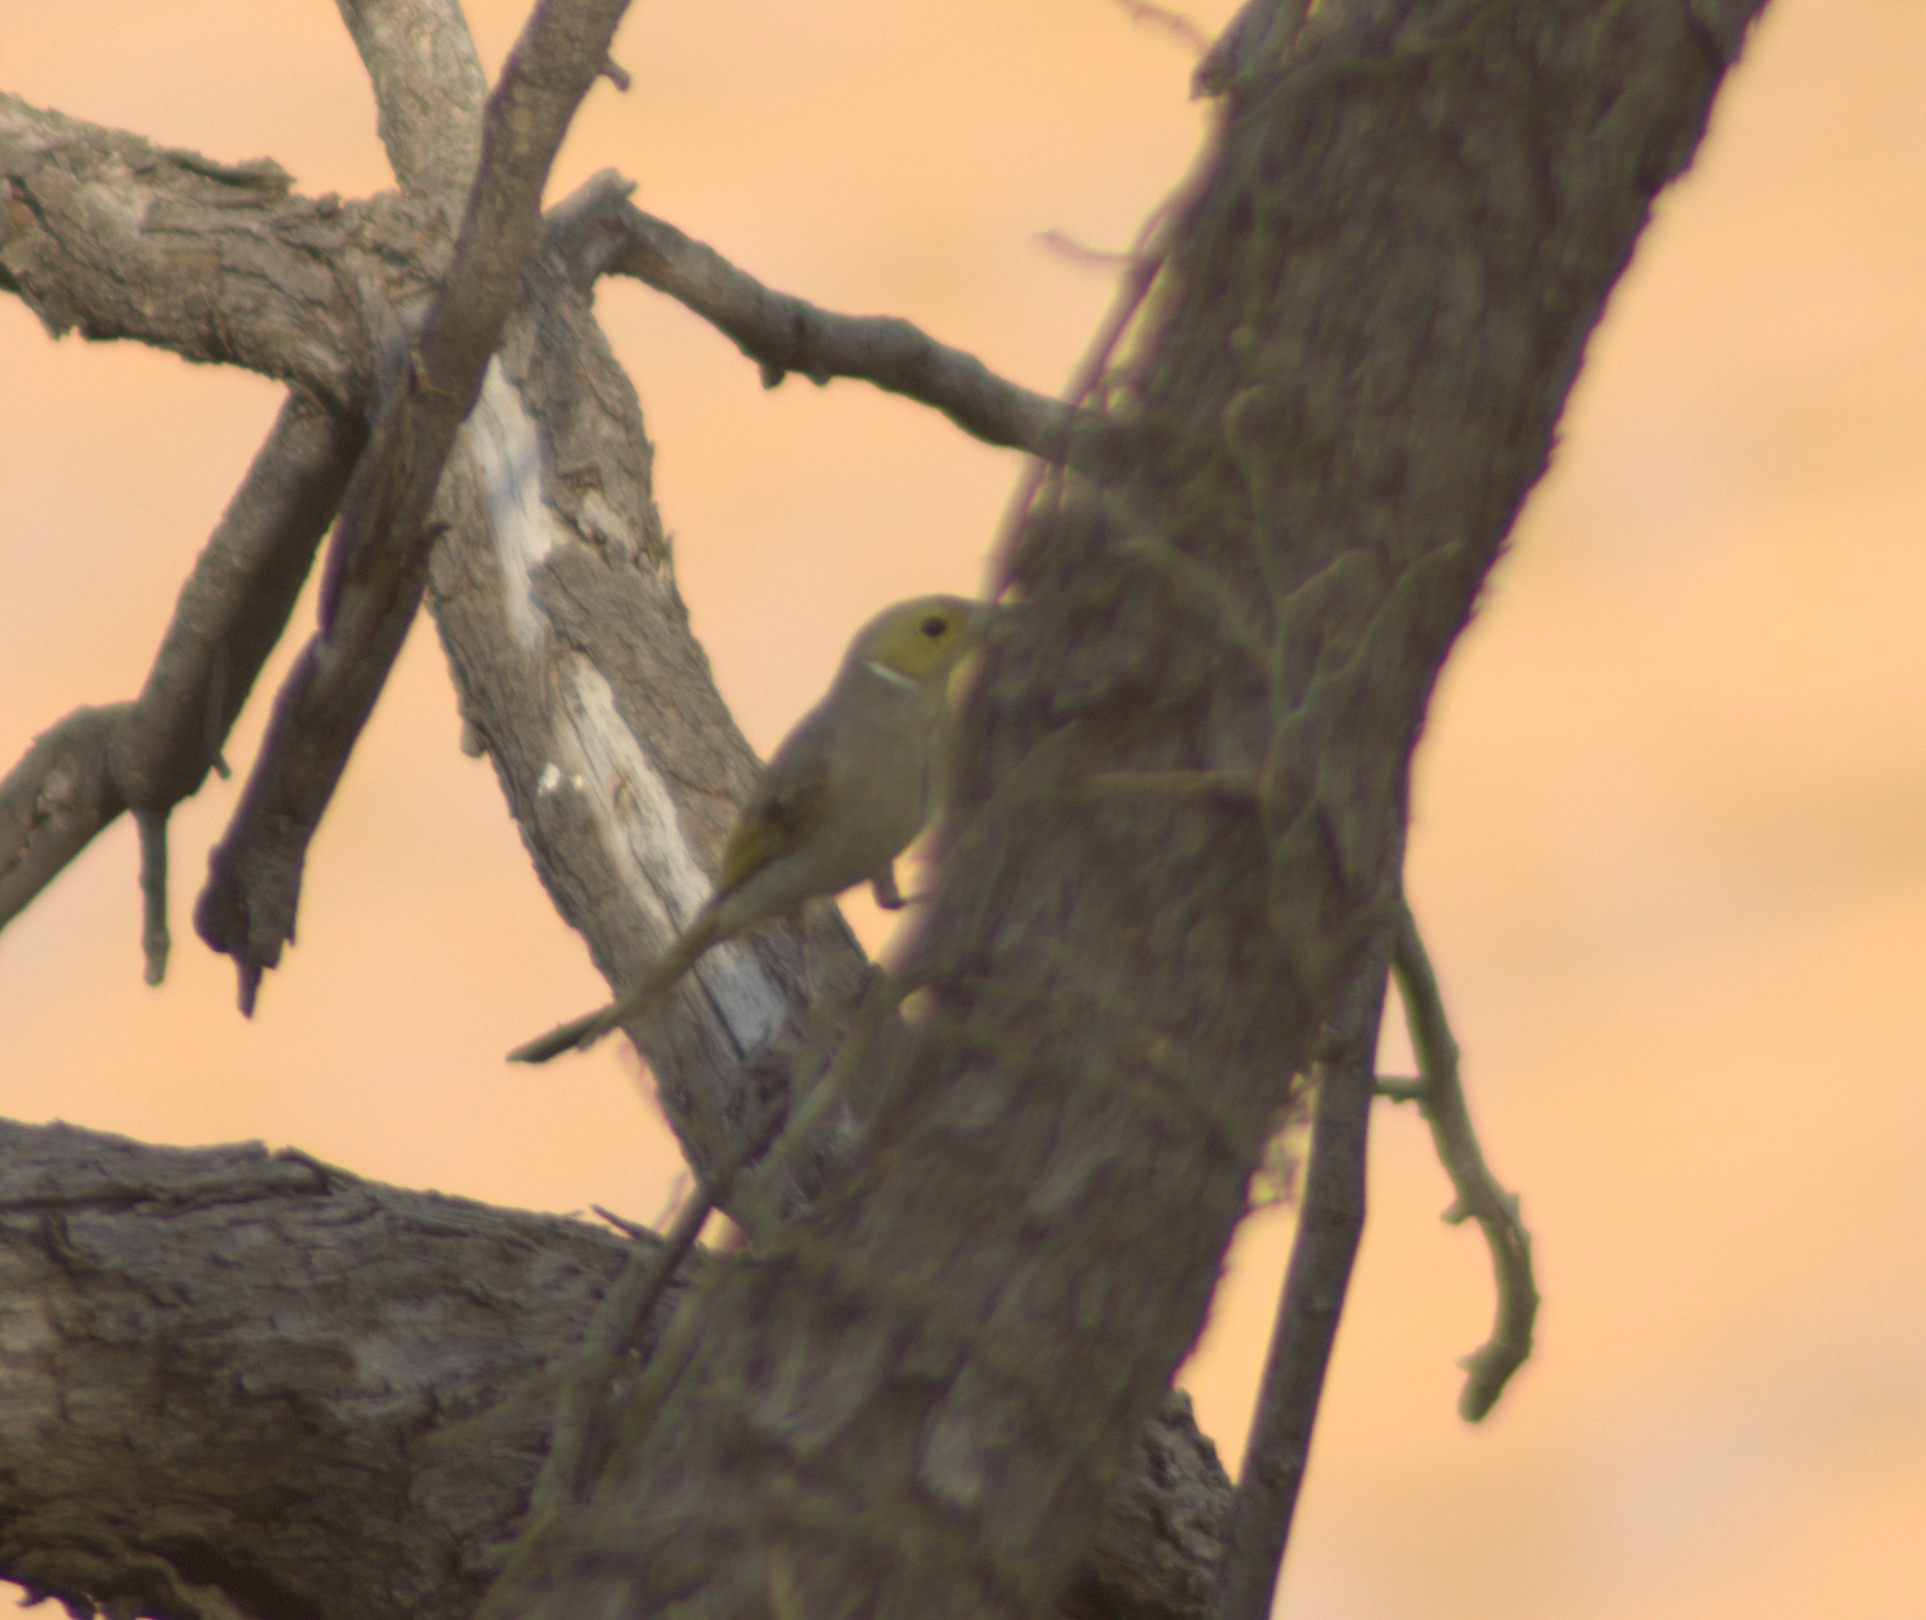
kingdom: Animalia
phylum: Chordata
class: Aves
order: Passeriformes
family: Meliphagidae
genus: Ptilotula
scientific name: Ptilotula penicillata
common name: White-plumed honeyeater
